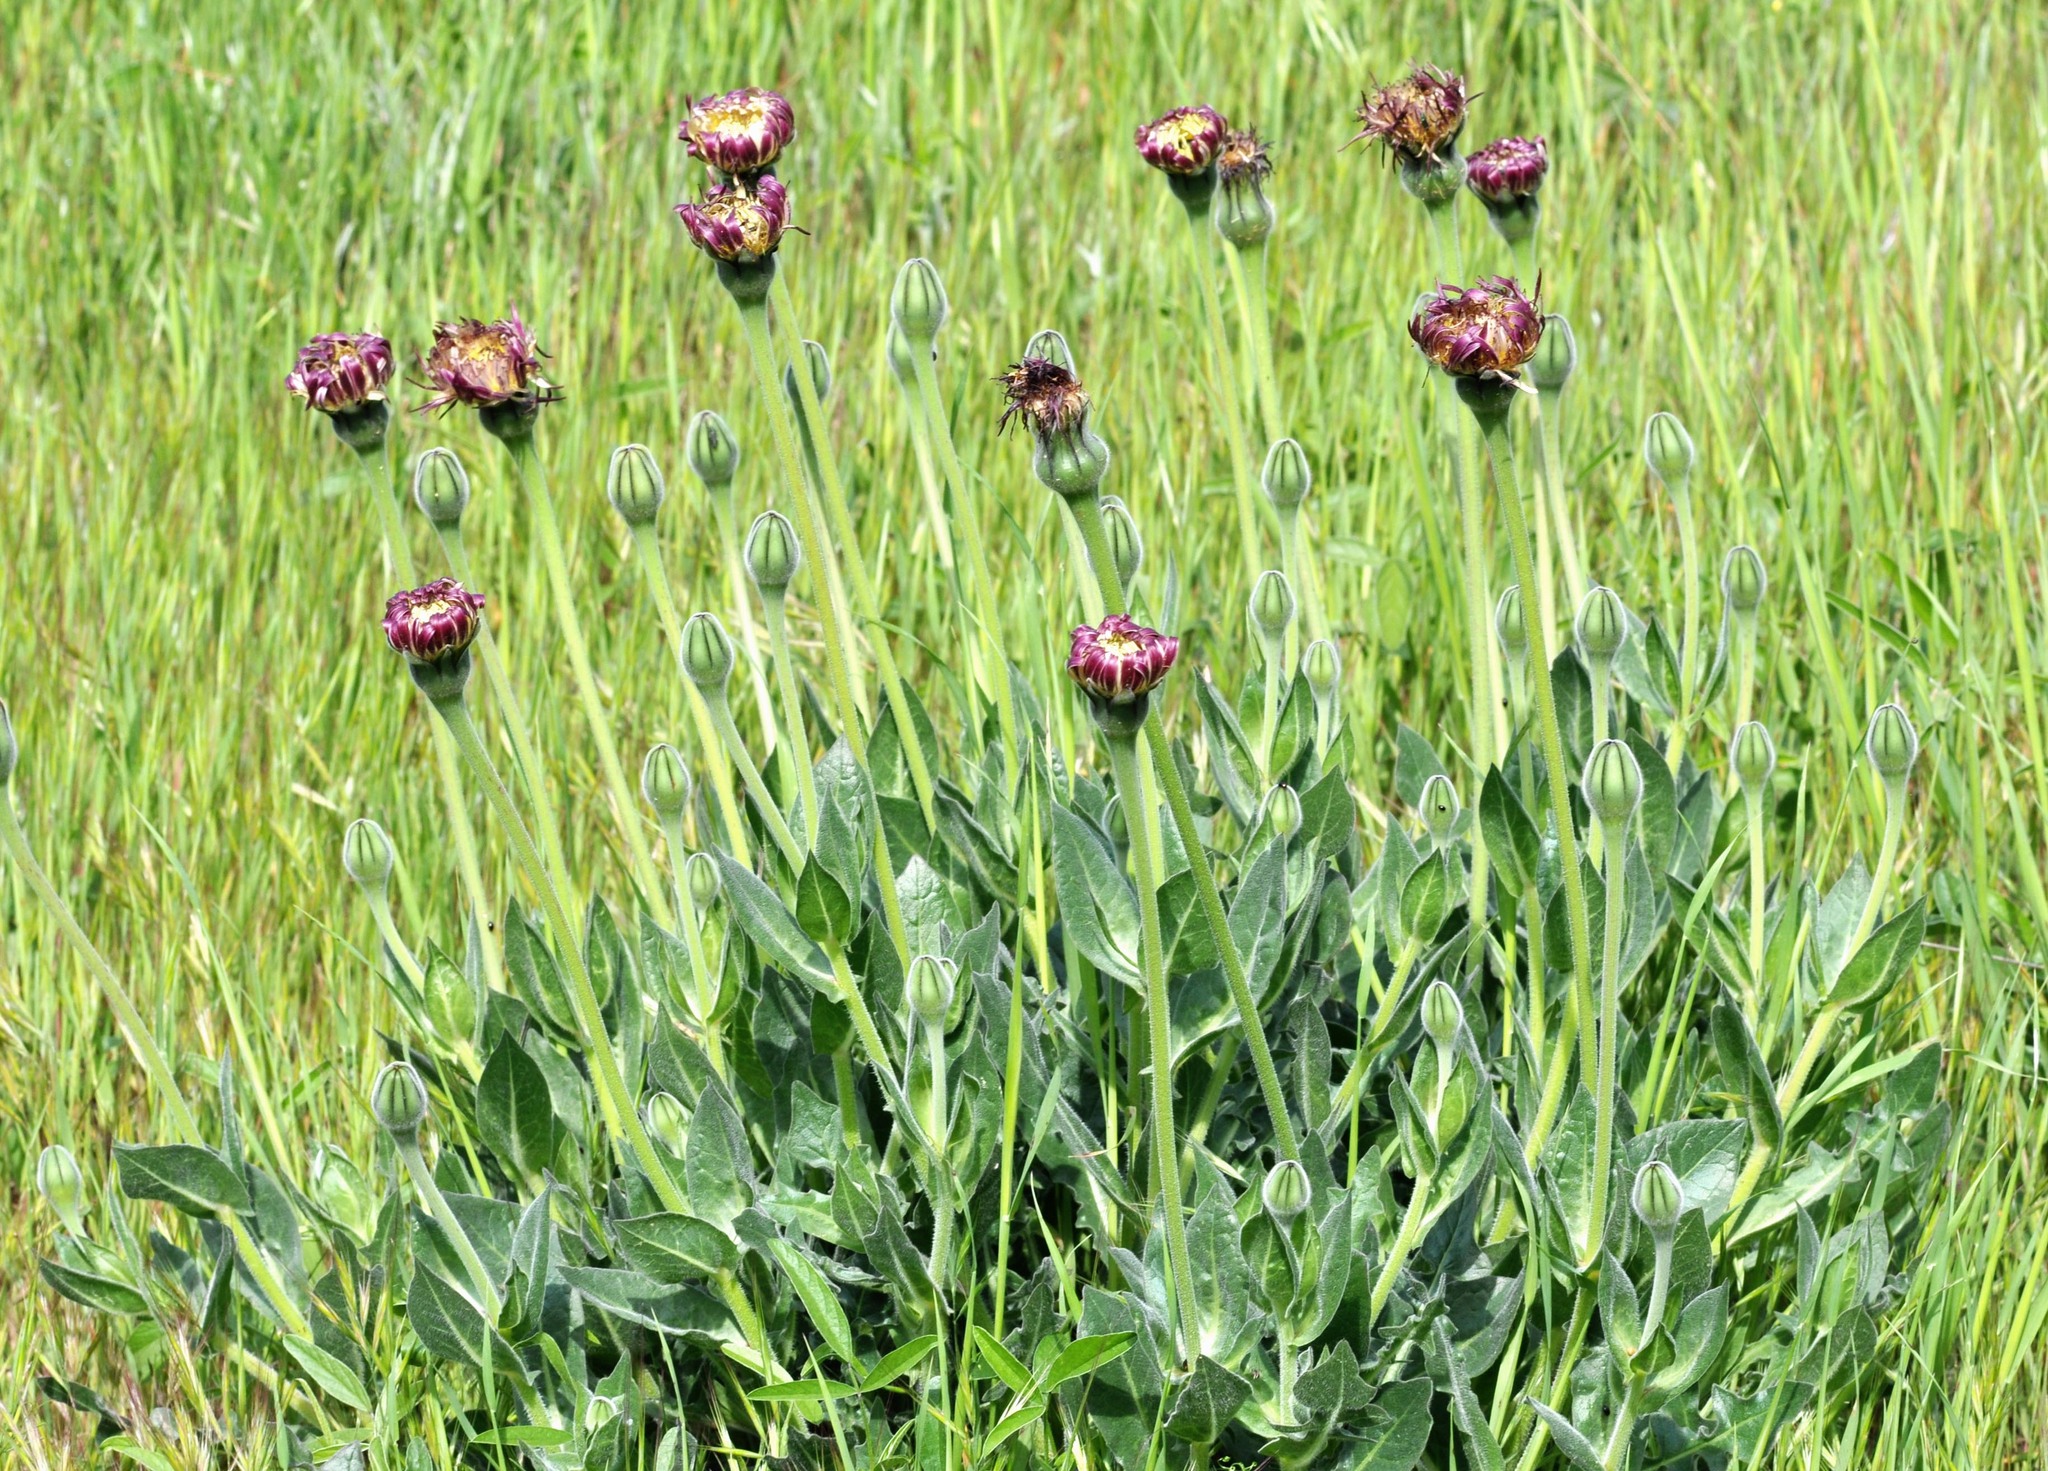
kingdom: Plantae
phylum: Tracheophyta
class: Magnoliopsida
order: Asterales
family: Asteraceae
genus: Urospermum
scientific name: Urospermum dalechampii
